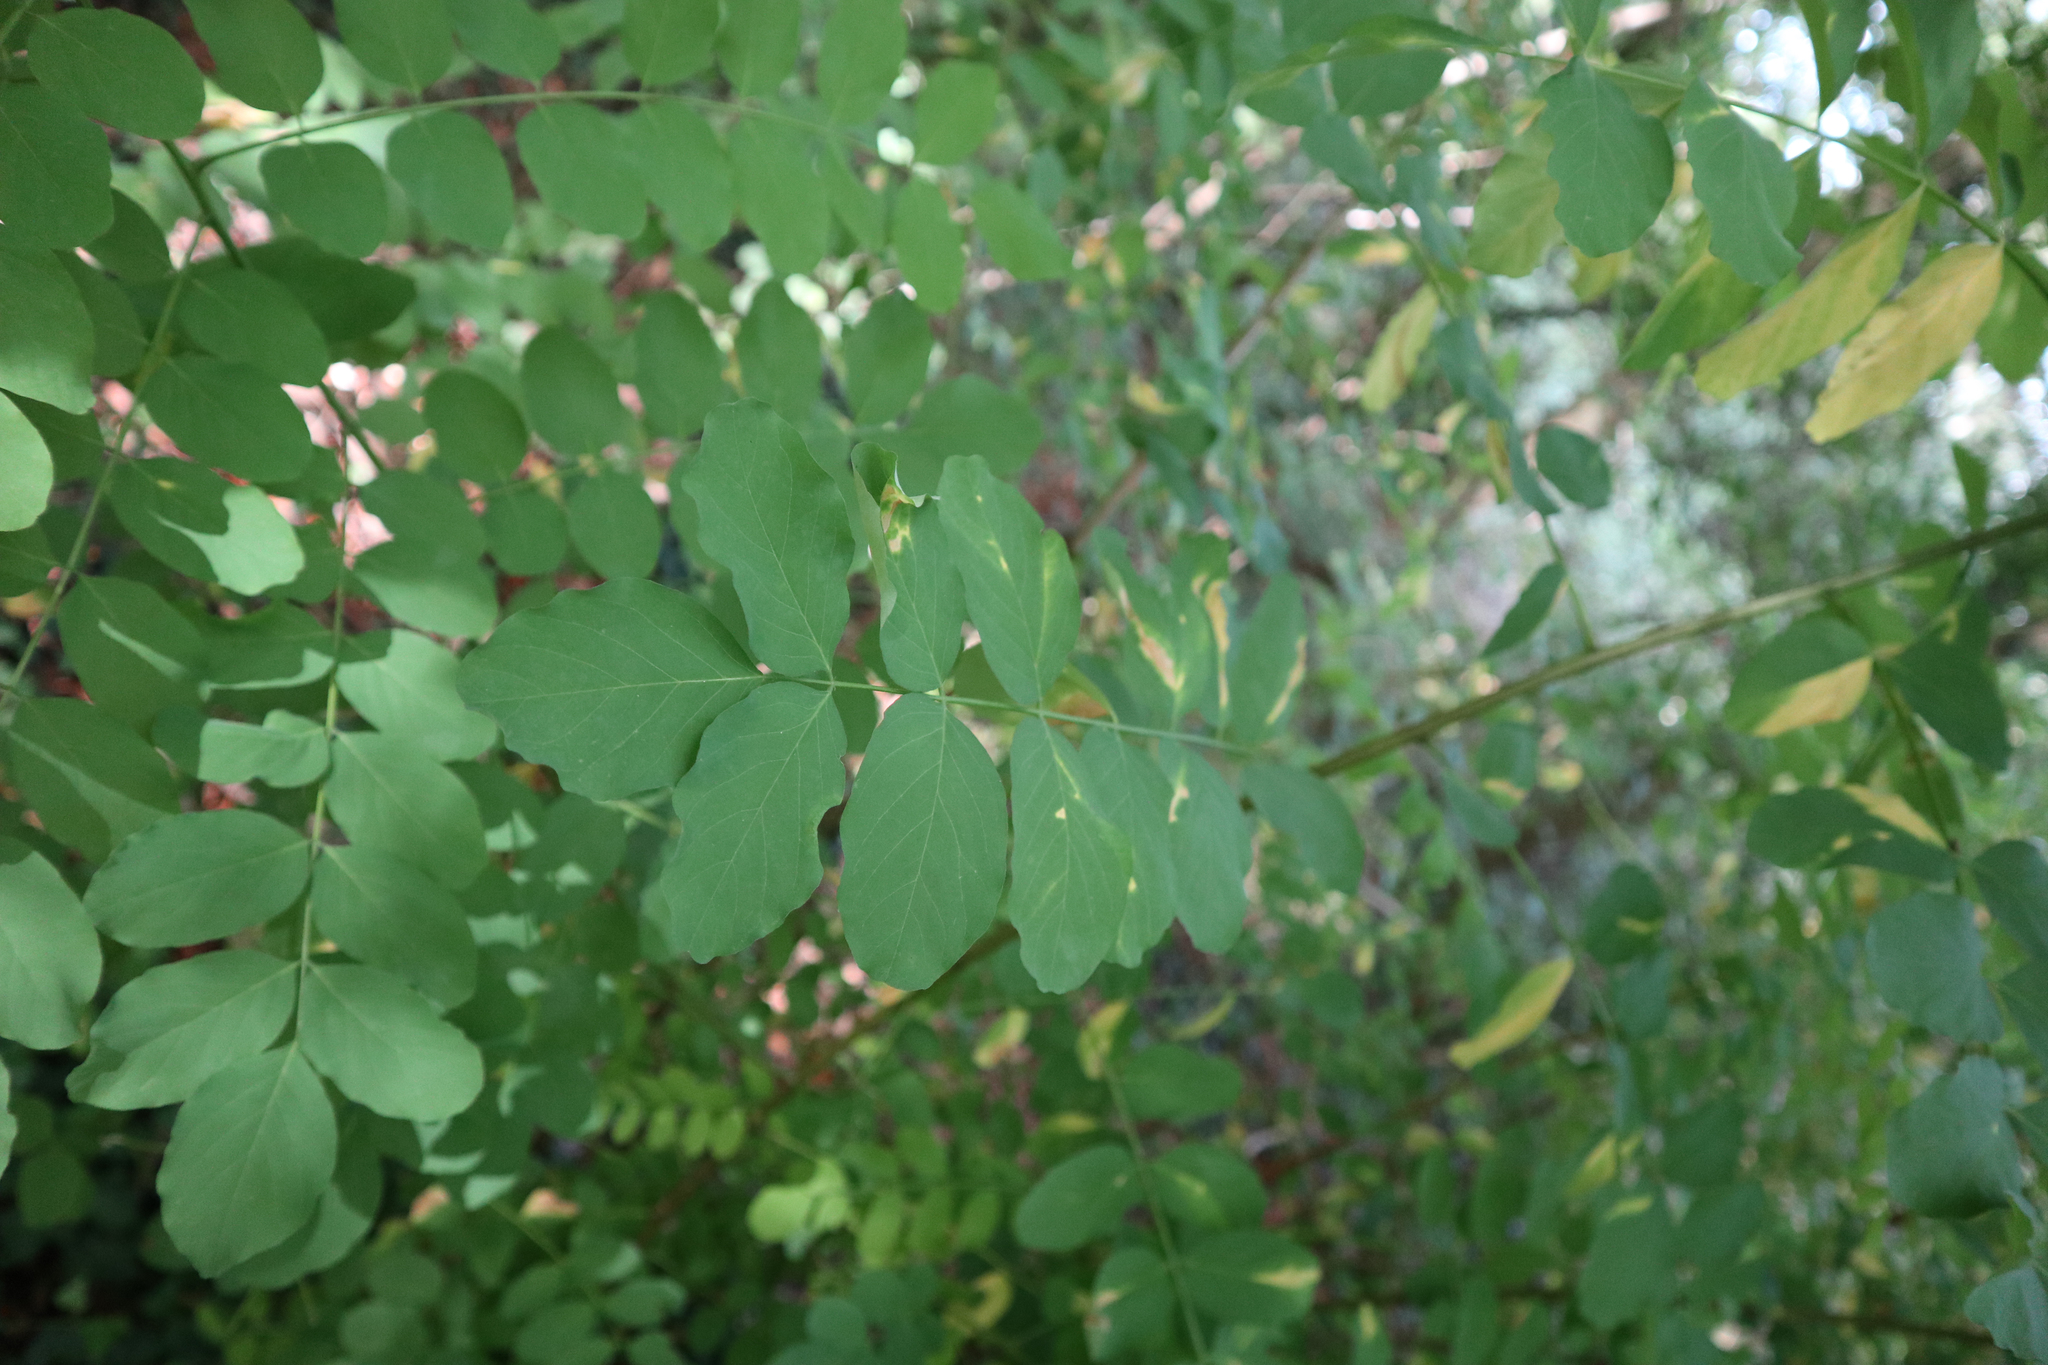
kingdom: Plantae
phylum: Tracheophyta
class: Magnoliopsida
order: Fabales
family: Fabaceae
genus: Robinia
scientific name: Robinia pseudoacacia
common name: Black locust
